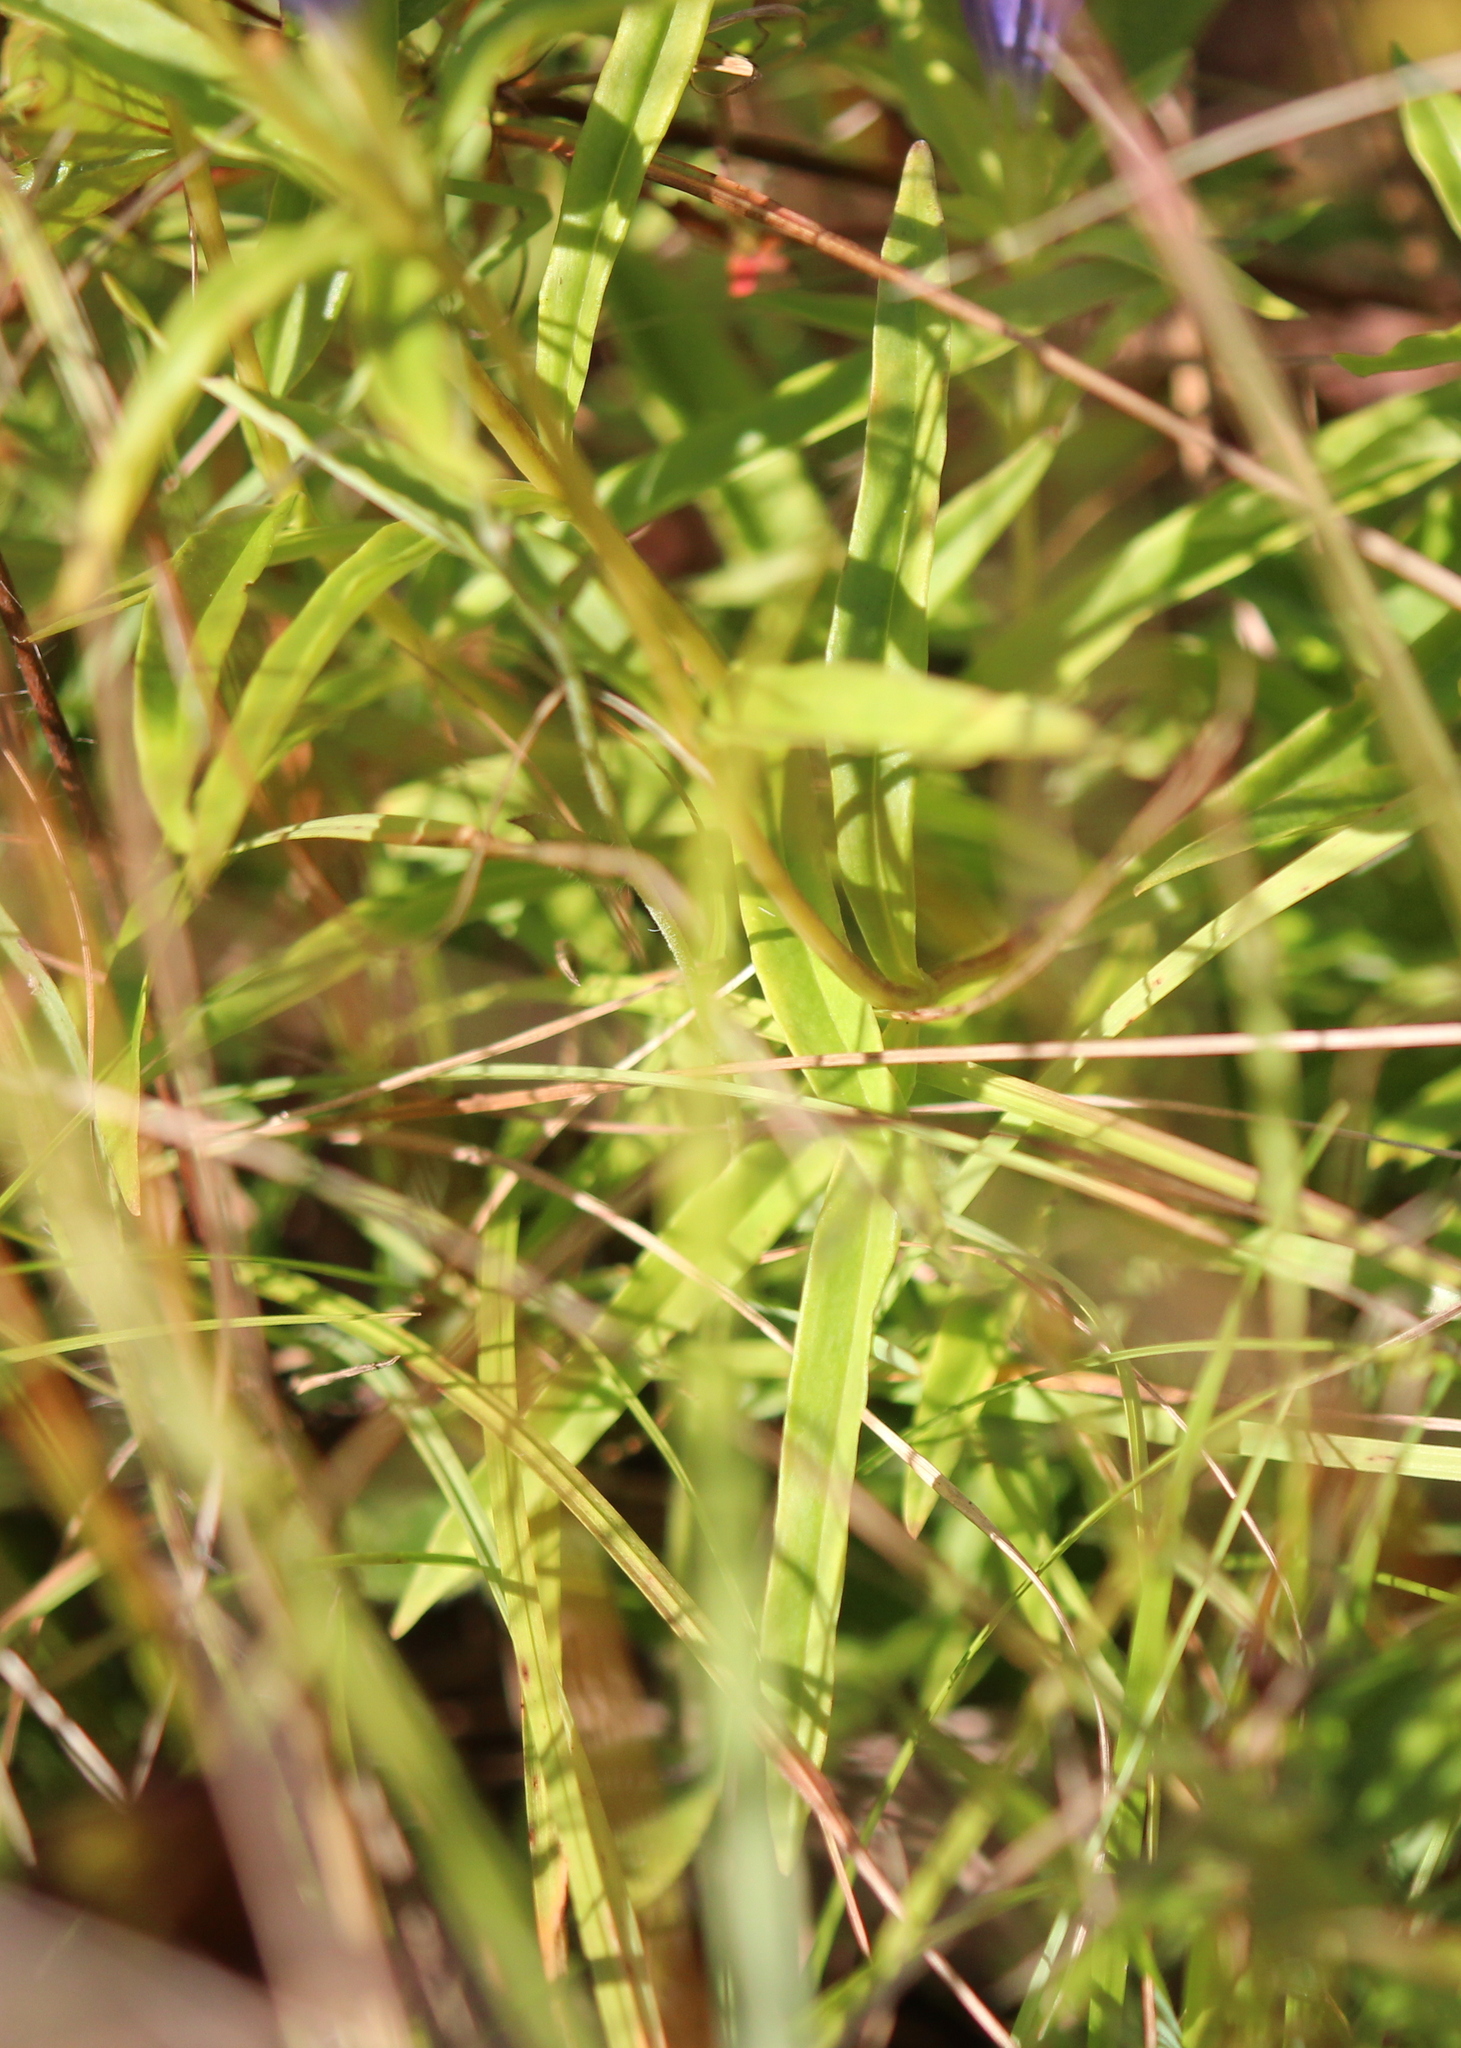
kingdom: Plantae
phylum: Tracheophyta
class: Magnoliopsida
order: Gentianales
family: Gentianaceae
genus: Gentiana
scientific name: Gentiana linearis
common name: Bastard gentian
